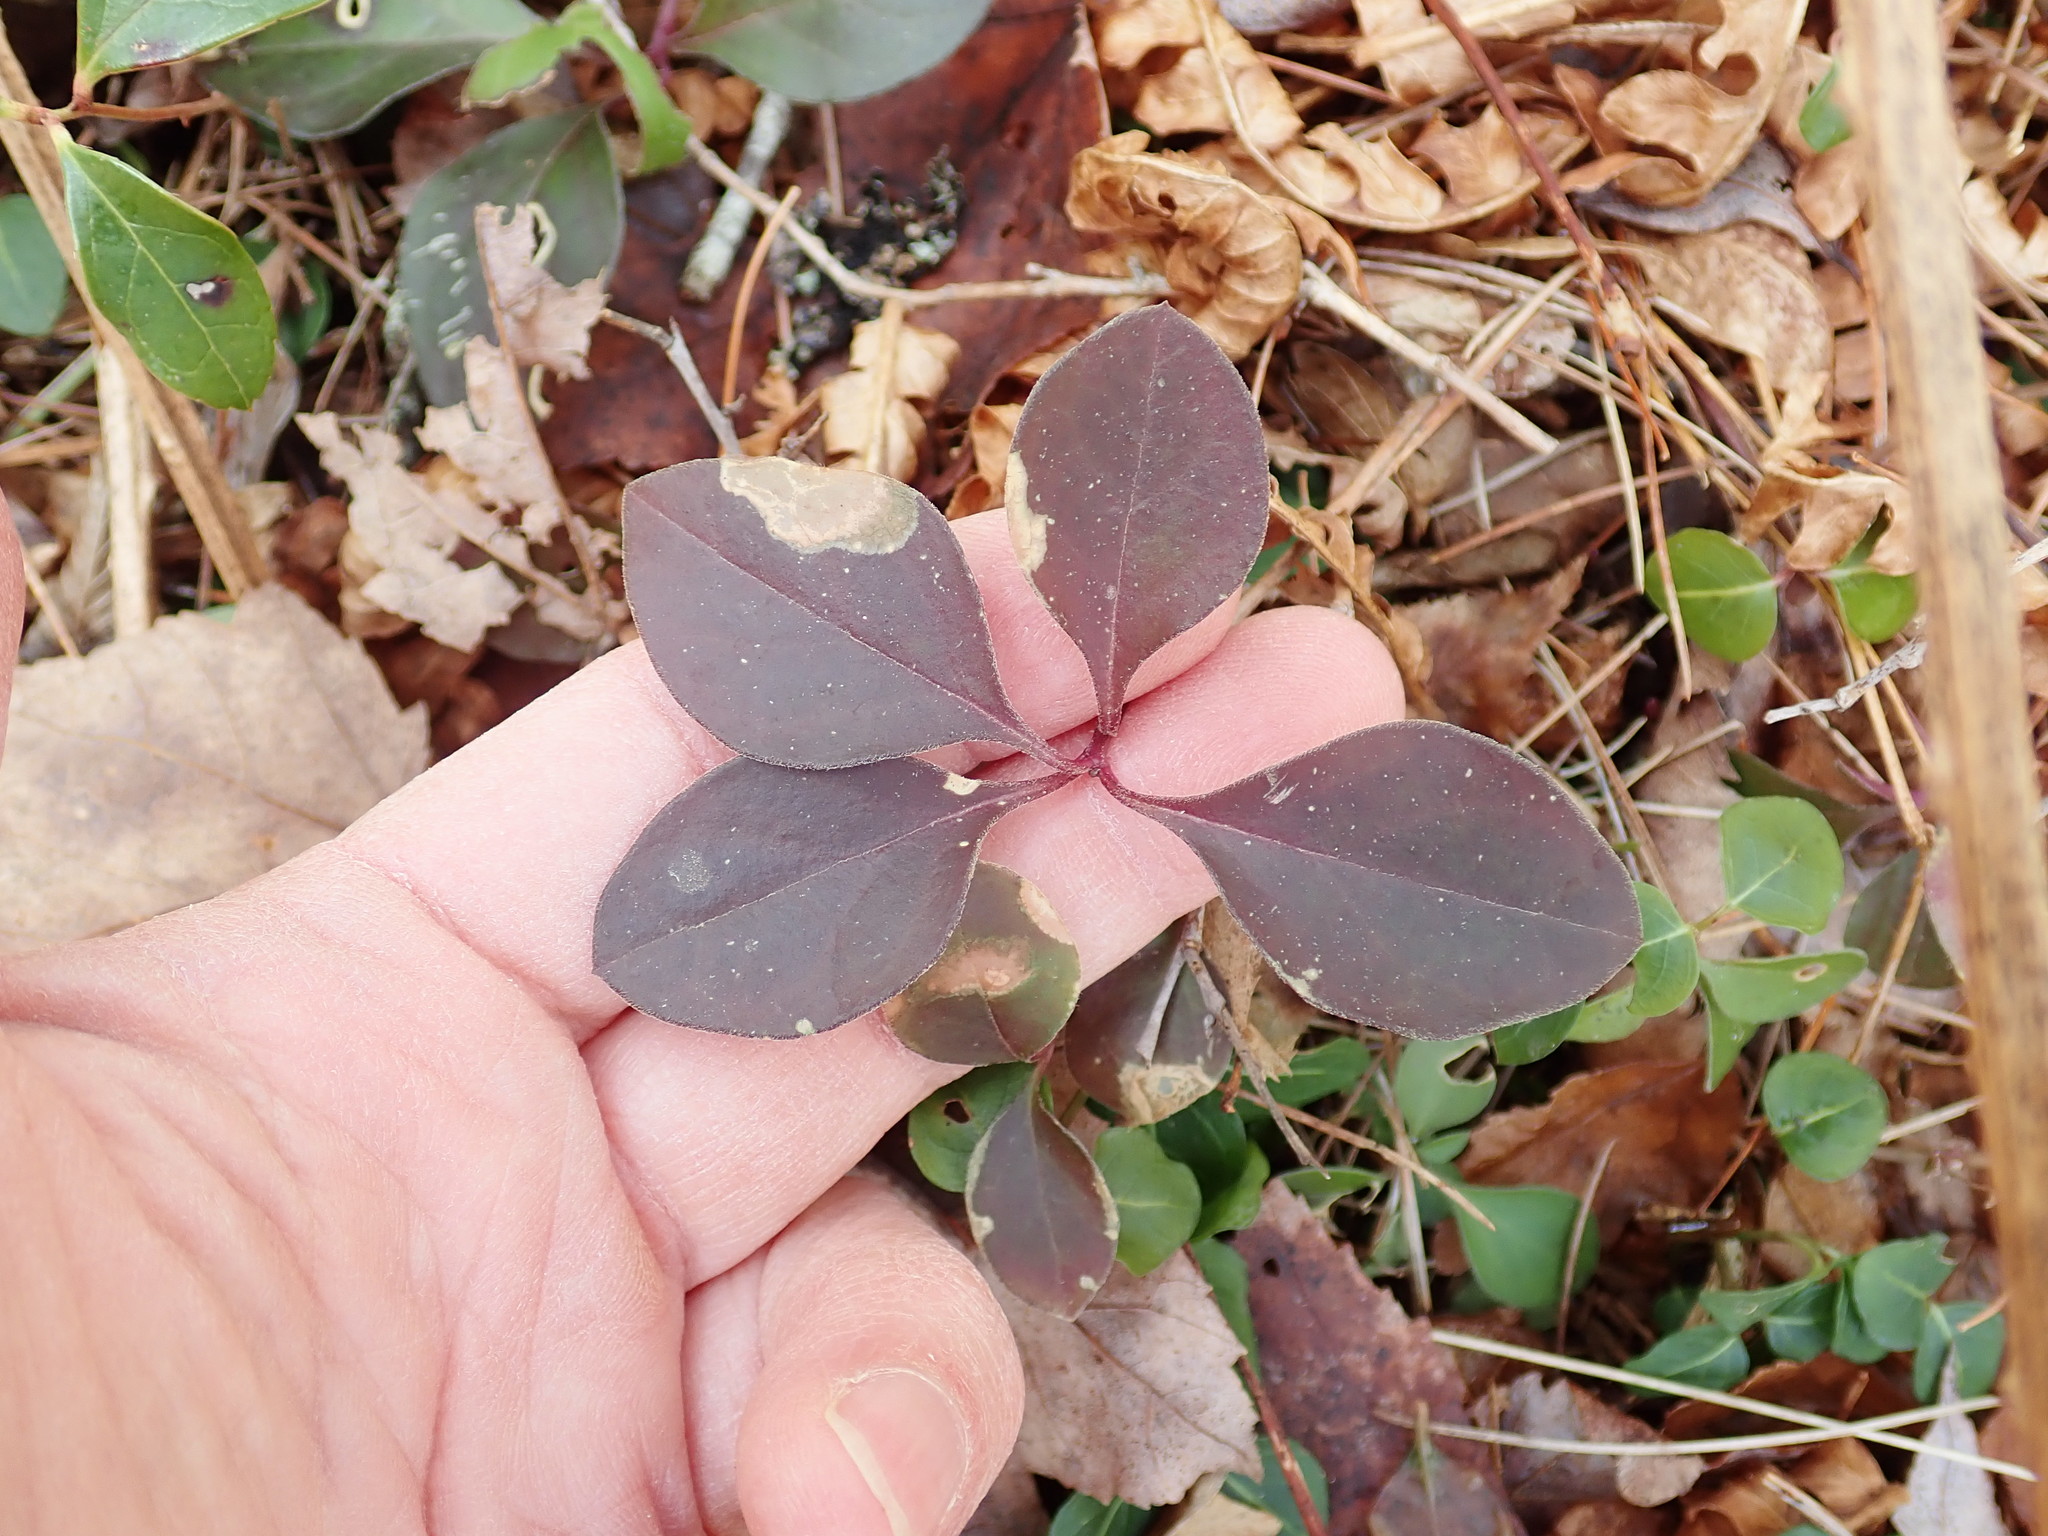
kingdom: Plantae
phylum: Tracheophyta
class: Magnoliopsida
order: Fabales
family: Polygalaceae
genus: Polygaloides
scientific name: Polygaloides paucifolia
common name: Bird-on-the-wing
